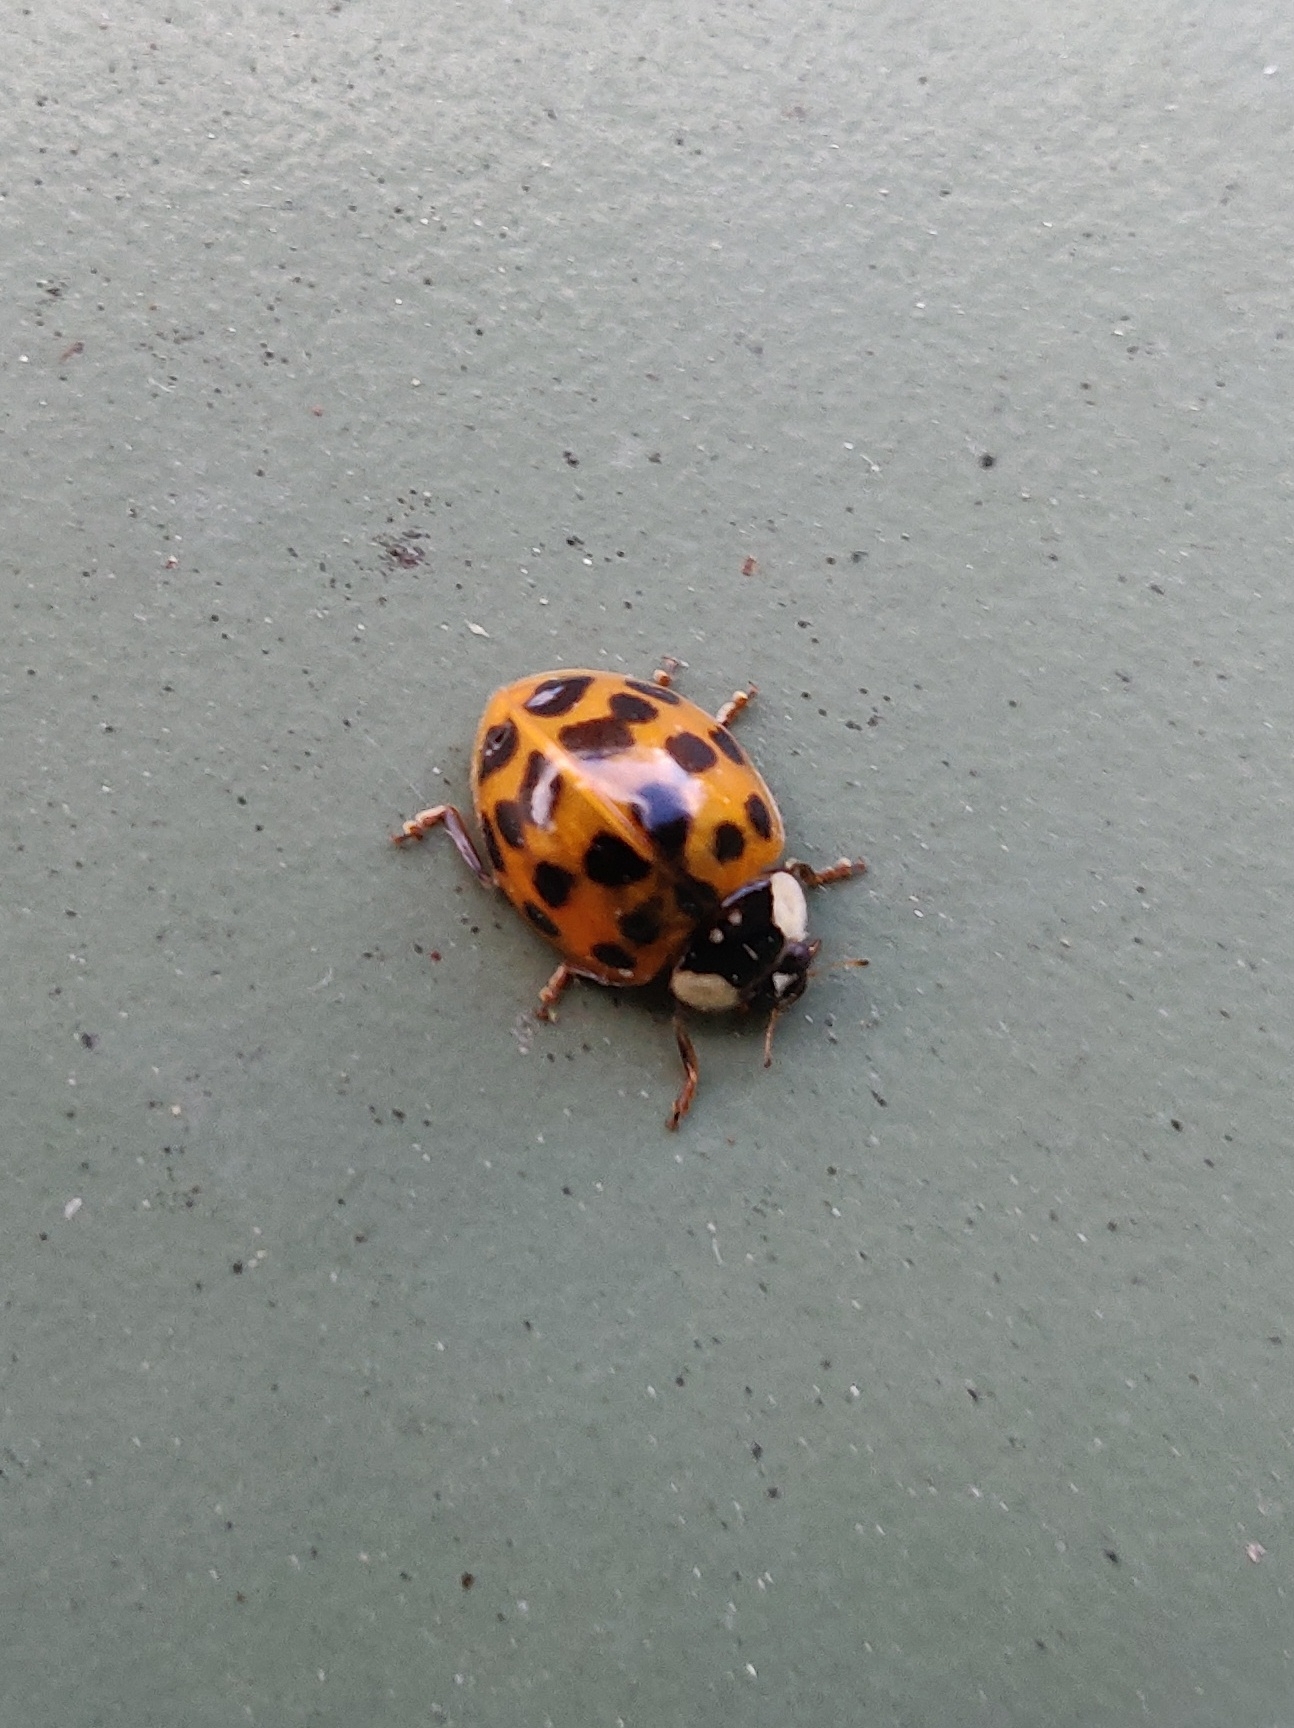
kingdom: Animalia
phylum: Arthropoda
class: Insecta
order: Coleoptera
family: Coccinellidae
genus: Harmonia
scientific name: Harmonia axyridis
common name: Harlequin ladybird
